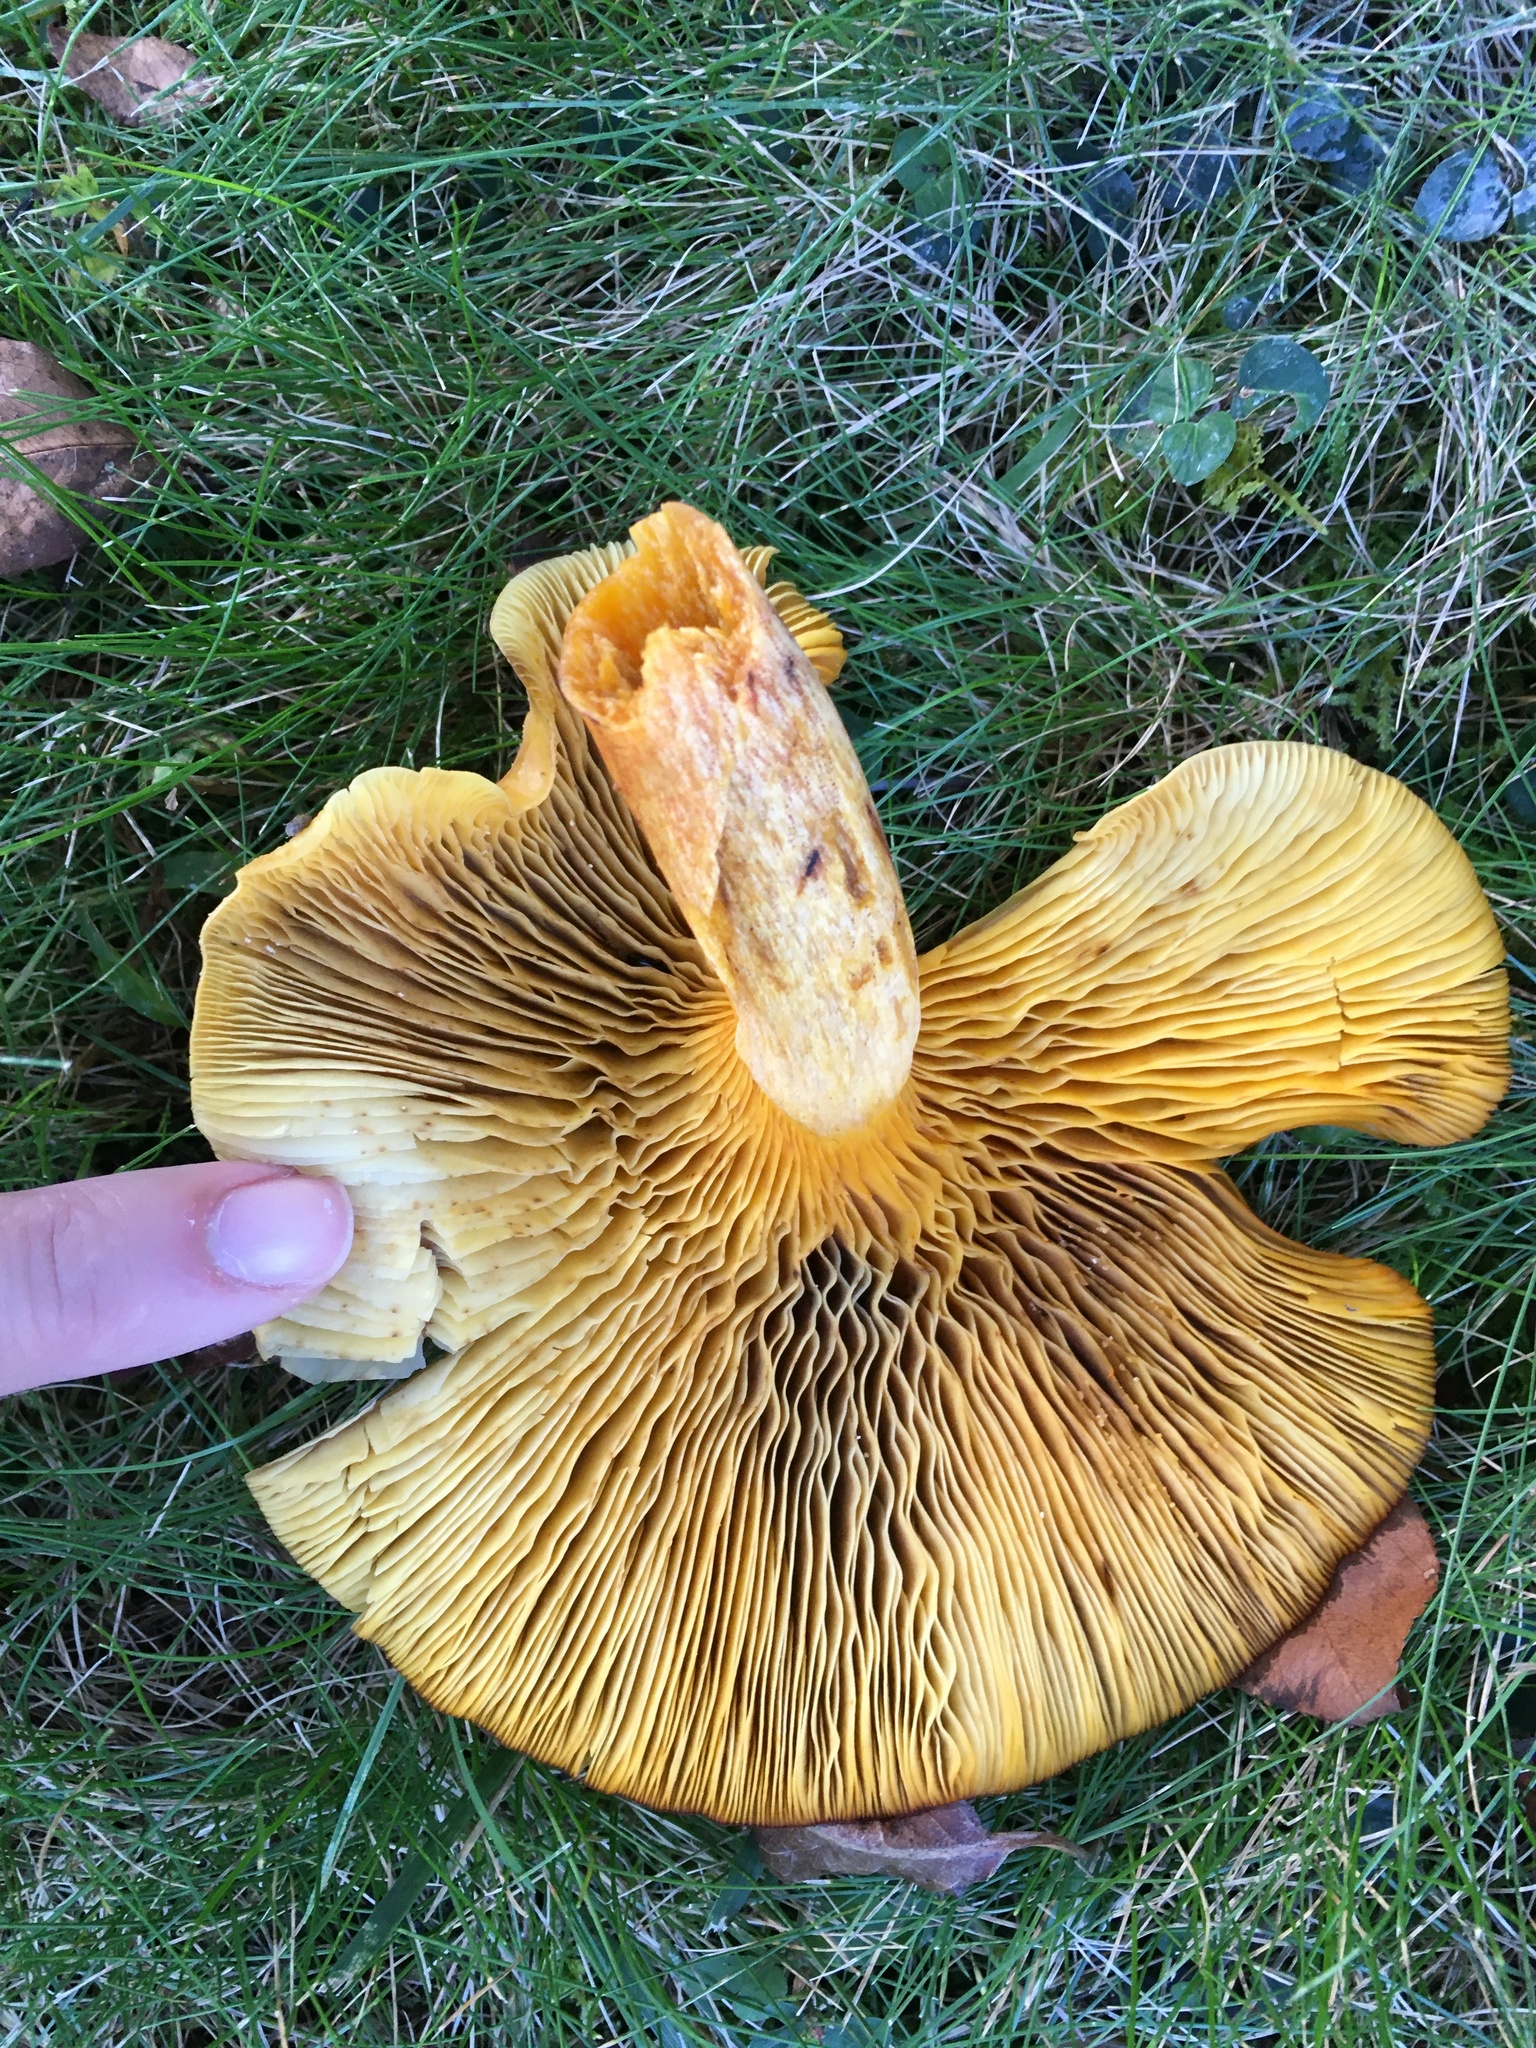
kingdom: Fungi
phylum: Basidiomycota
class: Agaricomycetes
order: Agaricales
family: Omphalotaceae
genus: Omphalotus
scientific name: Omphalotus illudens
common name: Jack o lantern
